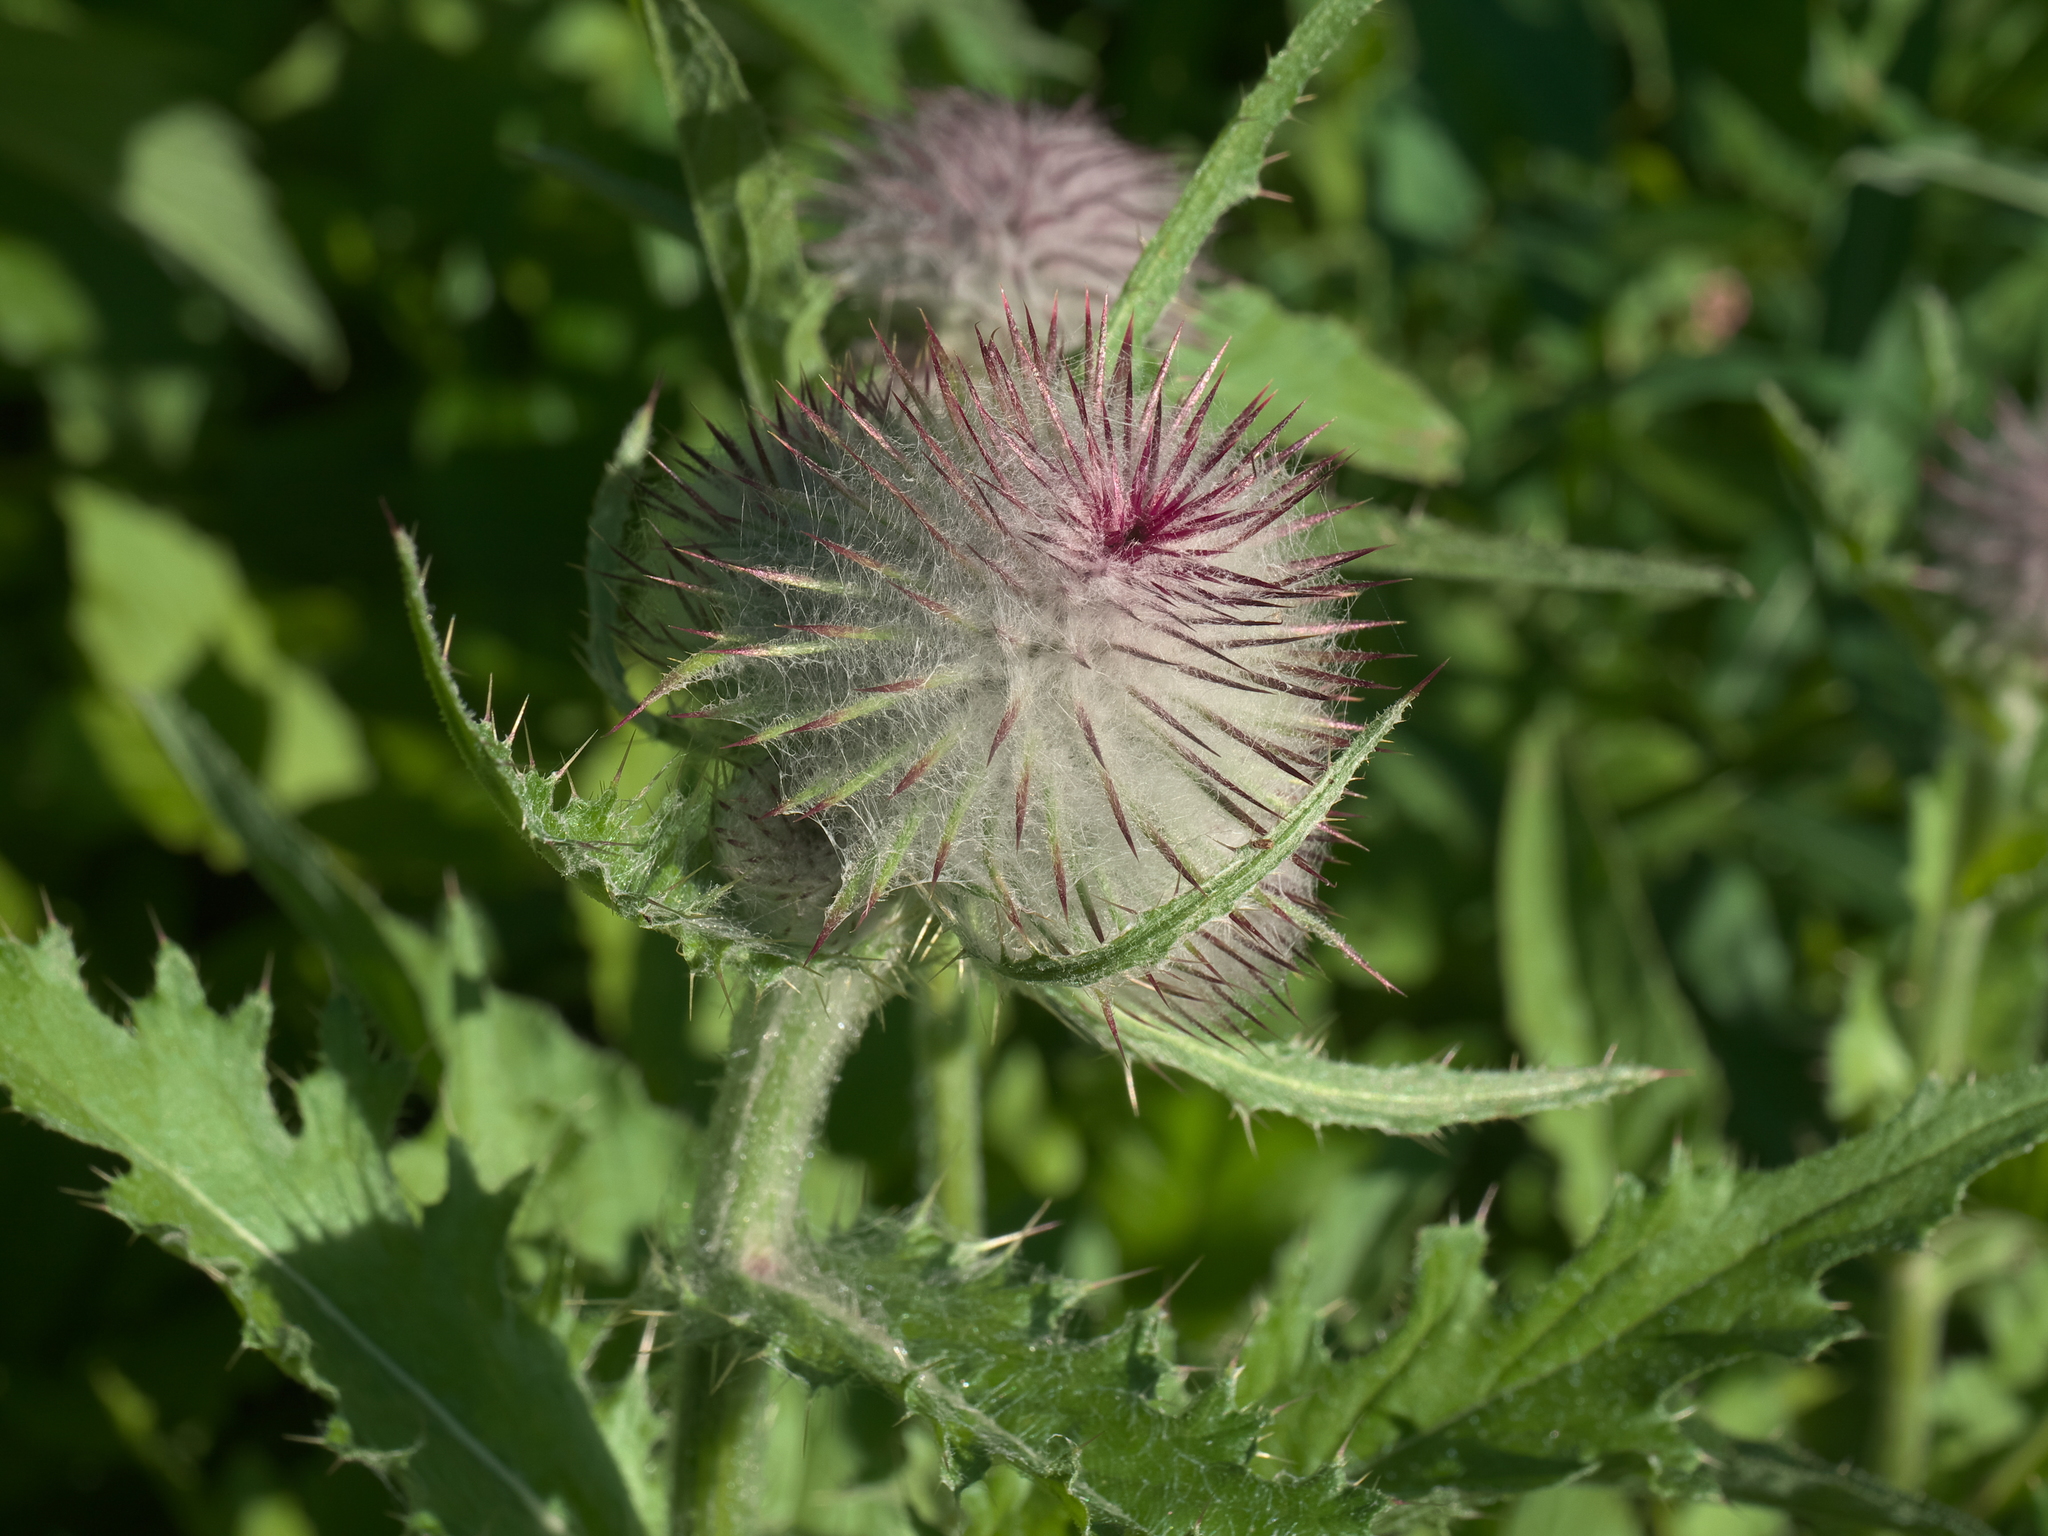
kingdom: Plantae
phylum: Tracheophyta
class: Magnoliopsida
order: Asterales
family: Asteraceae
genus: Cirsium
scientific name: Cirsium edule
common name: Indian thistle
